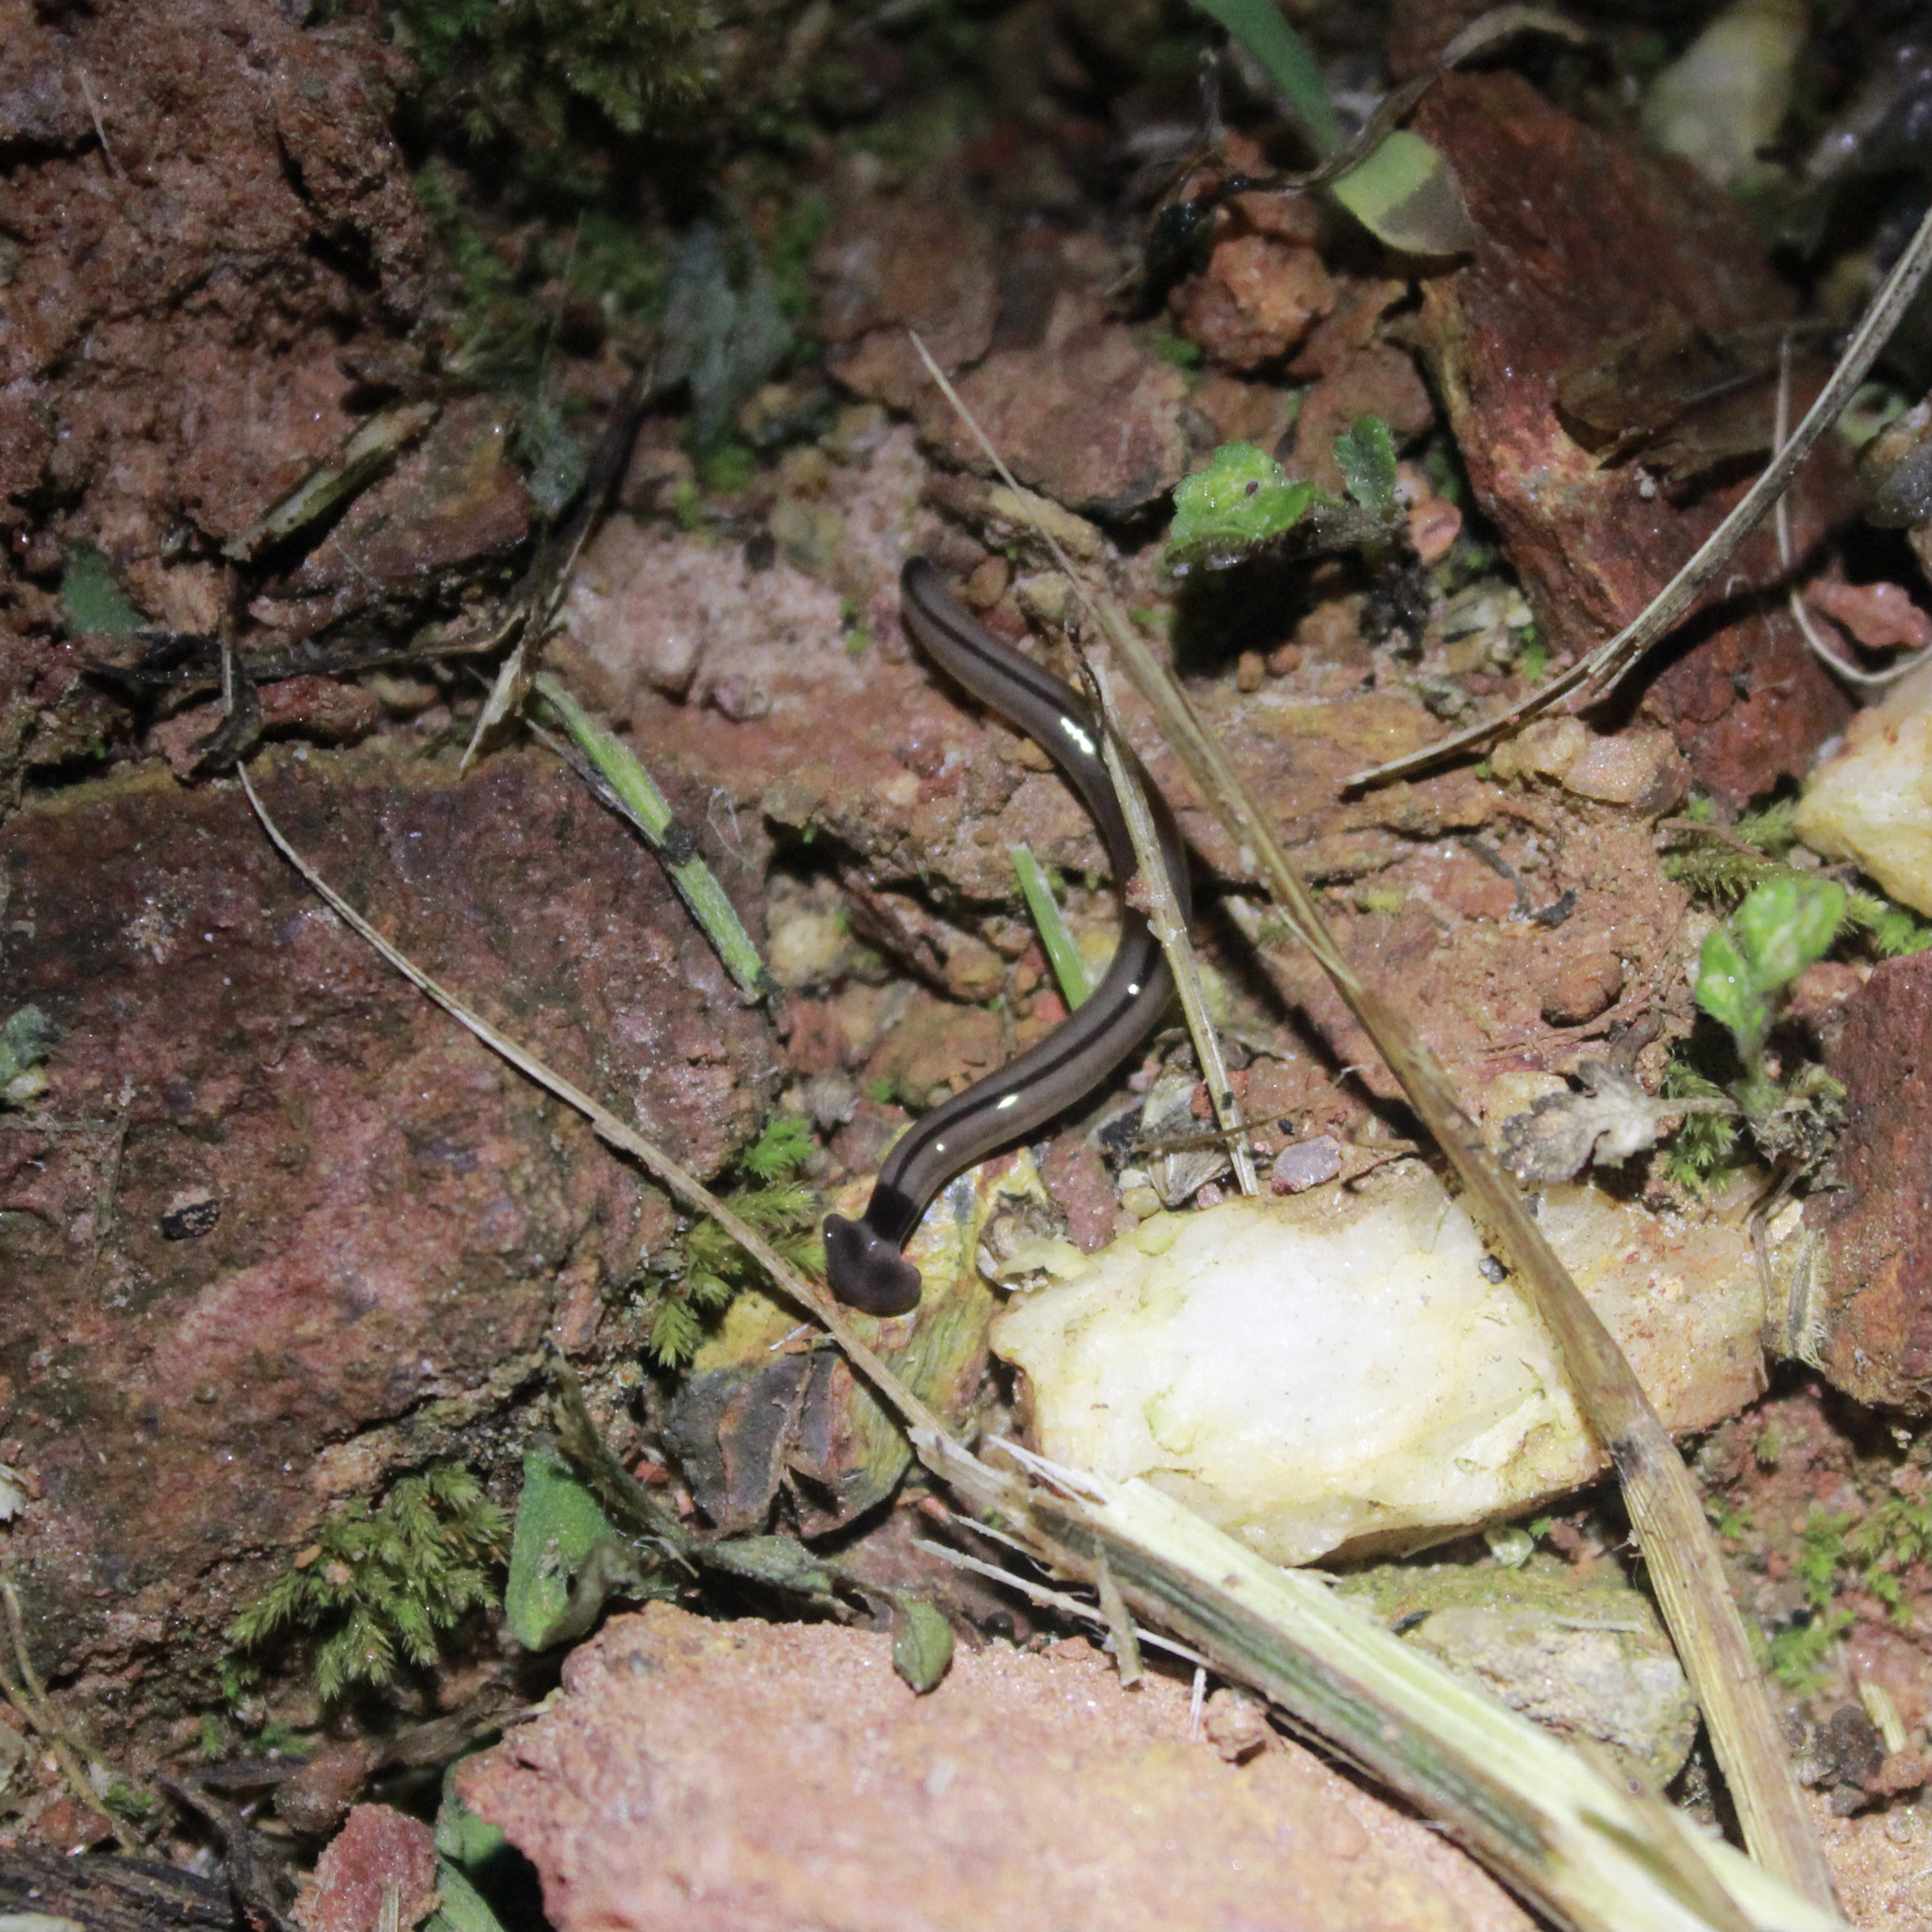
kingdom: Animalia
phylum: Platyhelminthes
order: Tricladida
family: Geoplanidae
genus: Bipalium
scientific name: Bipalium vagum
